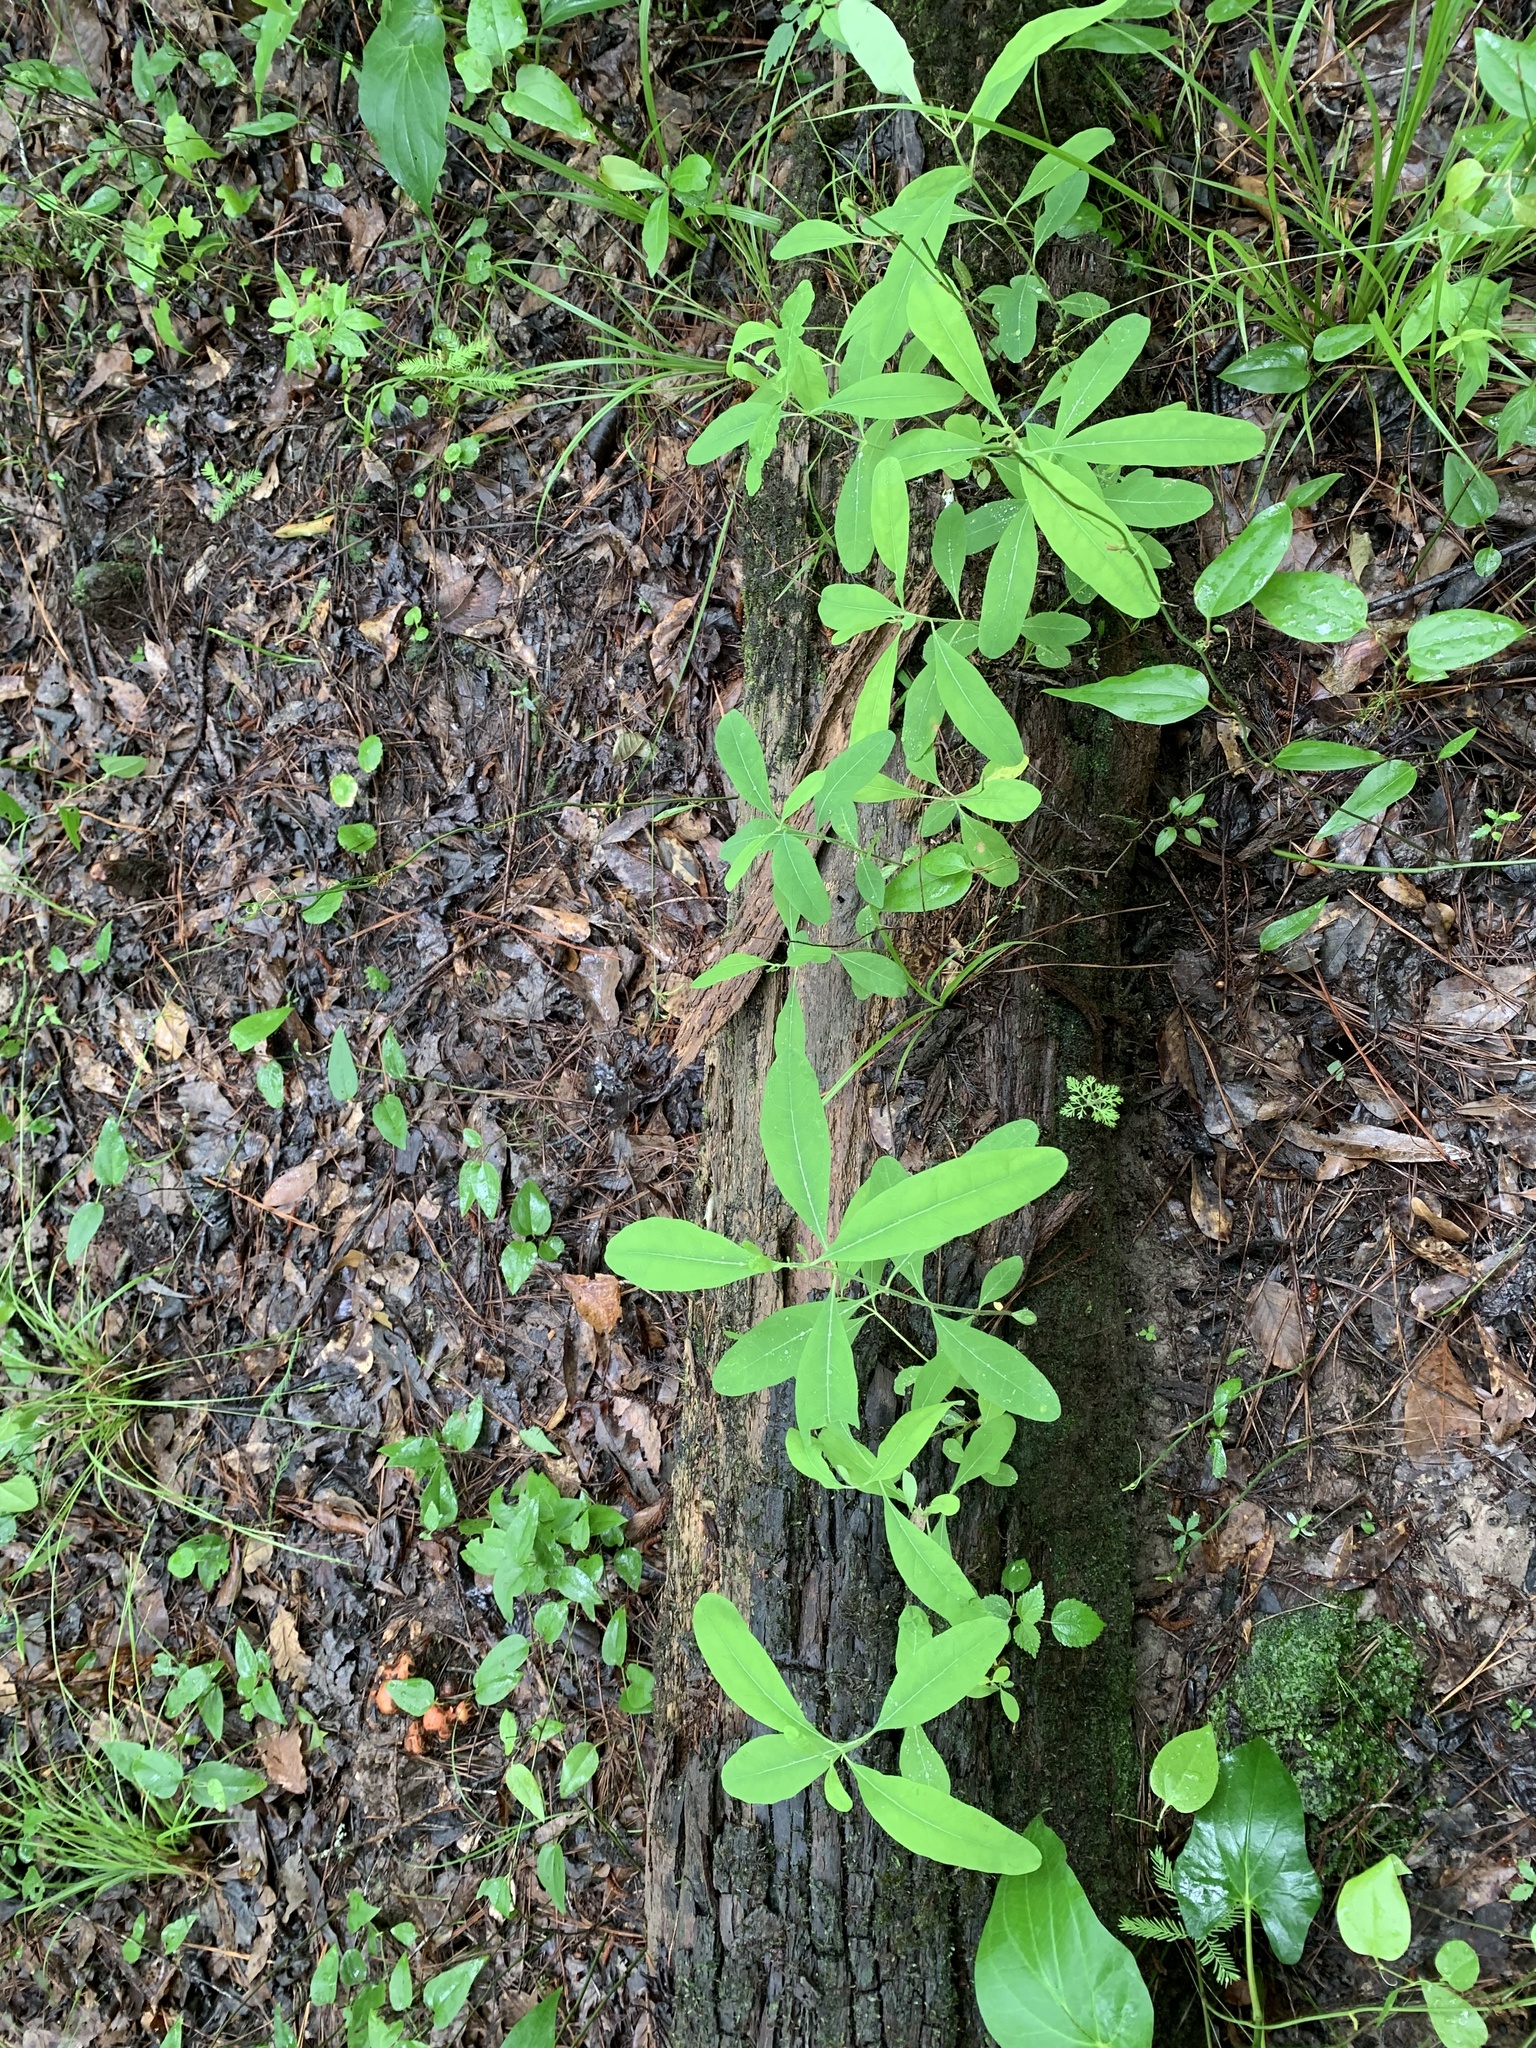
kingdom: Plantae
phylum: Tracheophyta
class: Magnoliopsida
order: Malpighiales
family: Hypericaceae
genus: Triadenum
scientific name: Triadenum walteri
